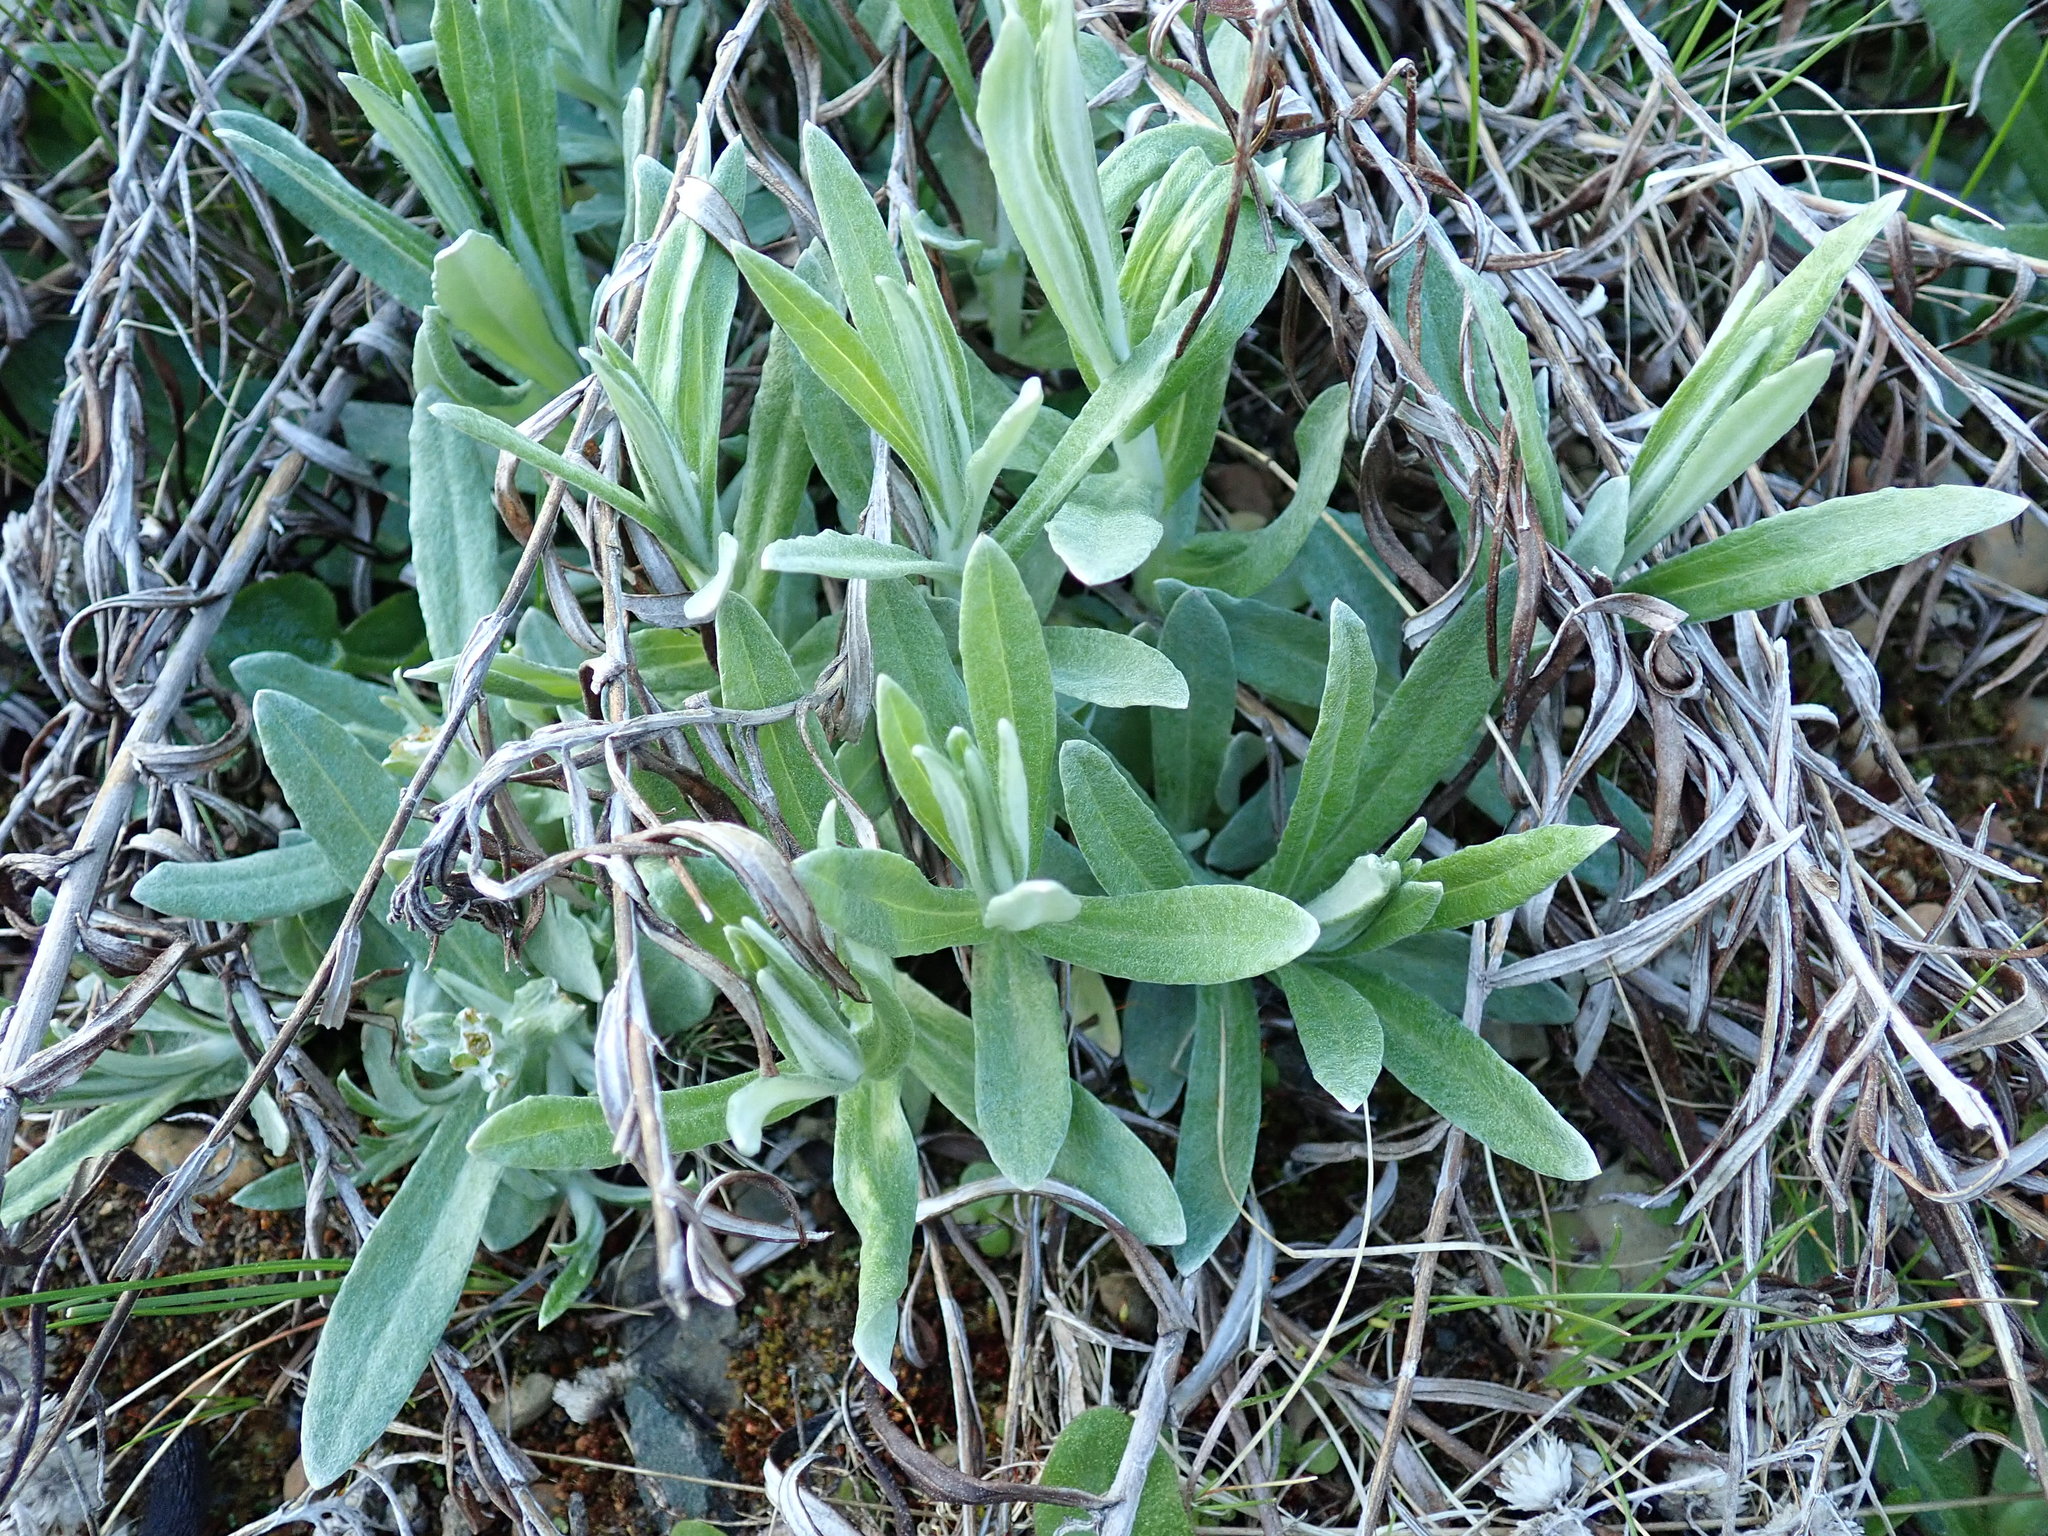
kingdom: Plantae
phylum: Tracheophyta
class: Magnoliopsida
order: Asterales
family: Asteraceae
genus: Anaphalis
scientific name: Anaphalis margaritacea
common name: Pearly everlasting
